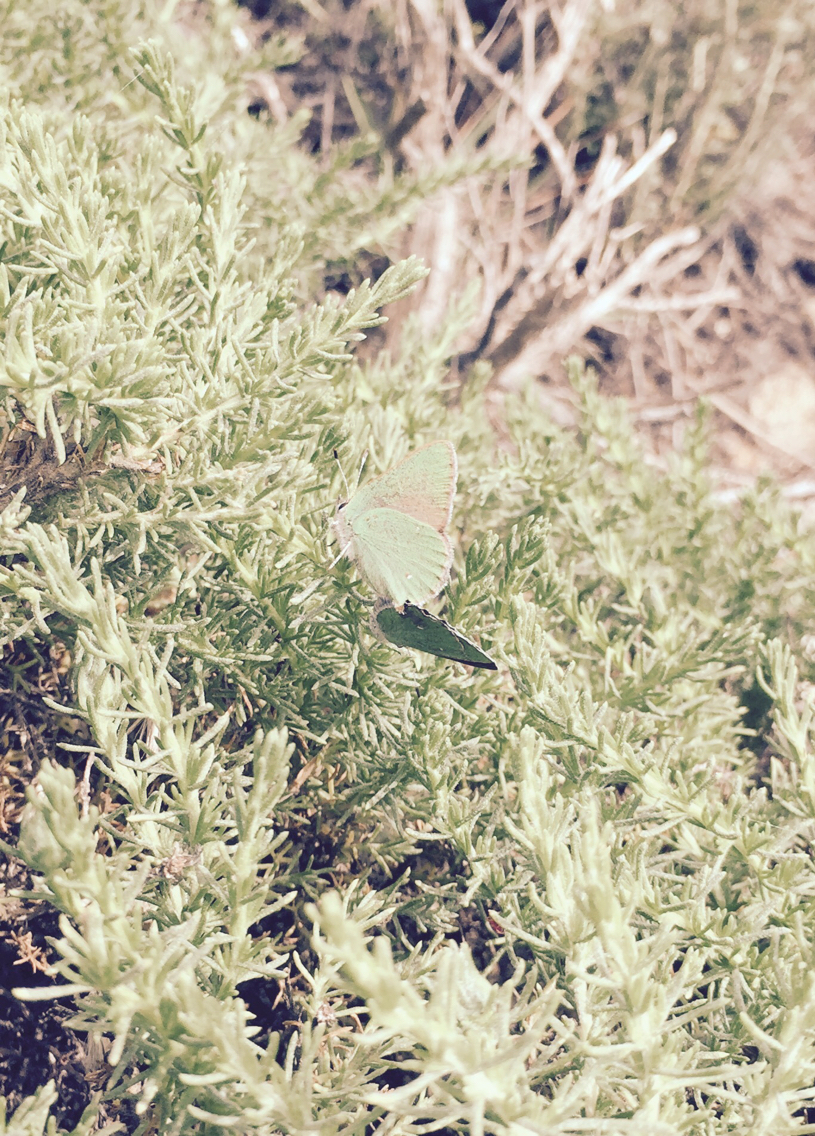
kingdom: Animalia
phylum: Arthropoda
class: Insecta
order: Lepidoptera
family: Lycaenidae
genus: Callophrys
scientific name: Callophrys viridis
